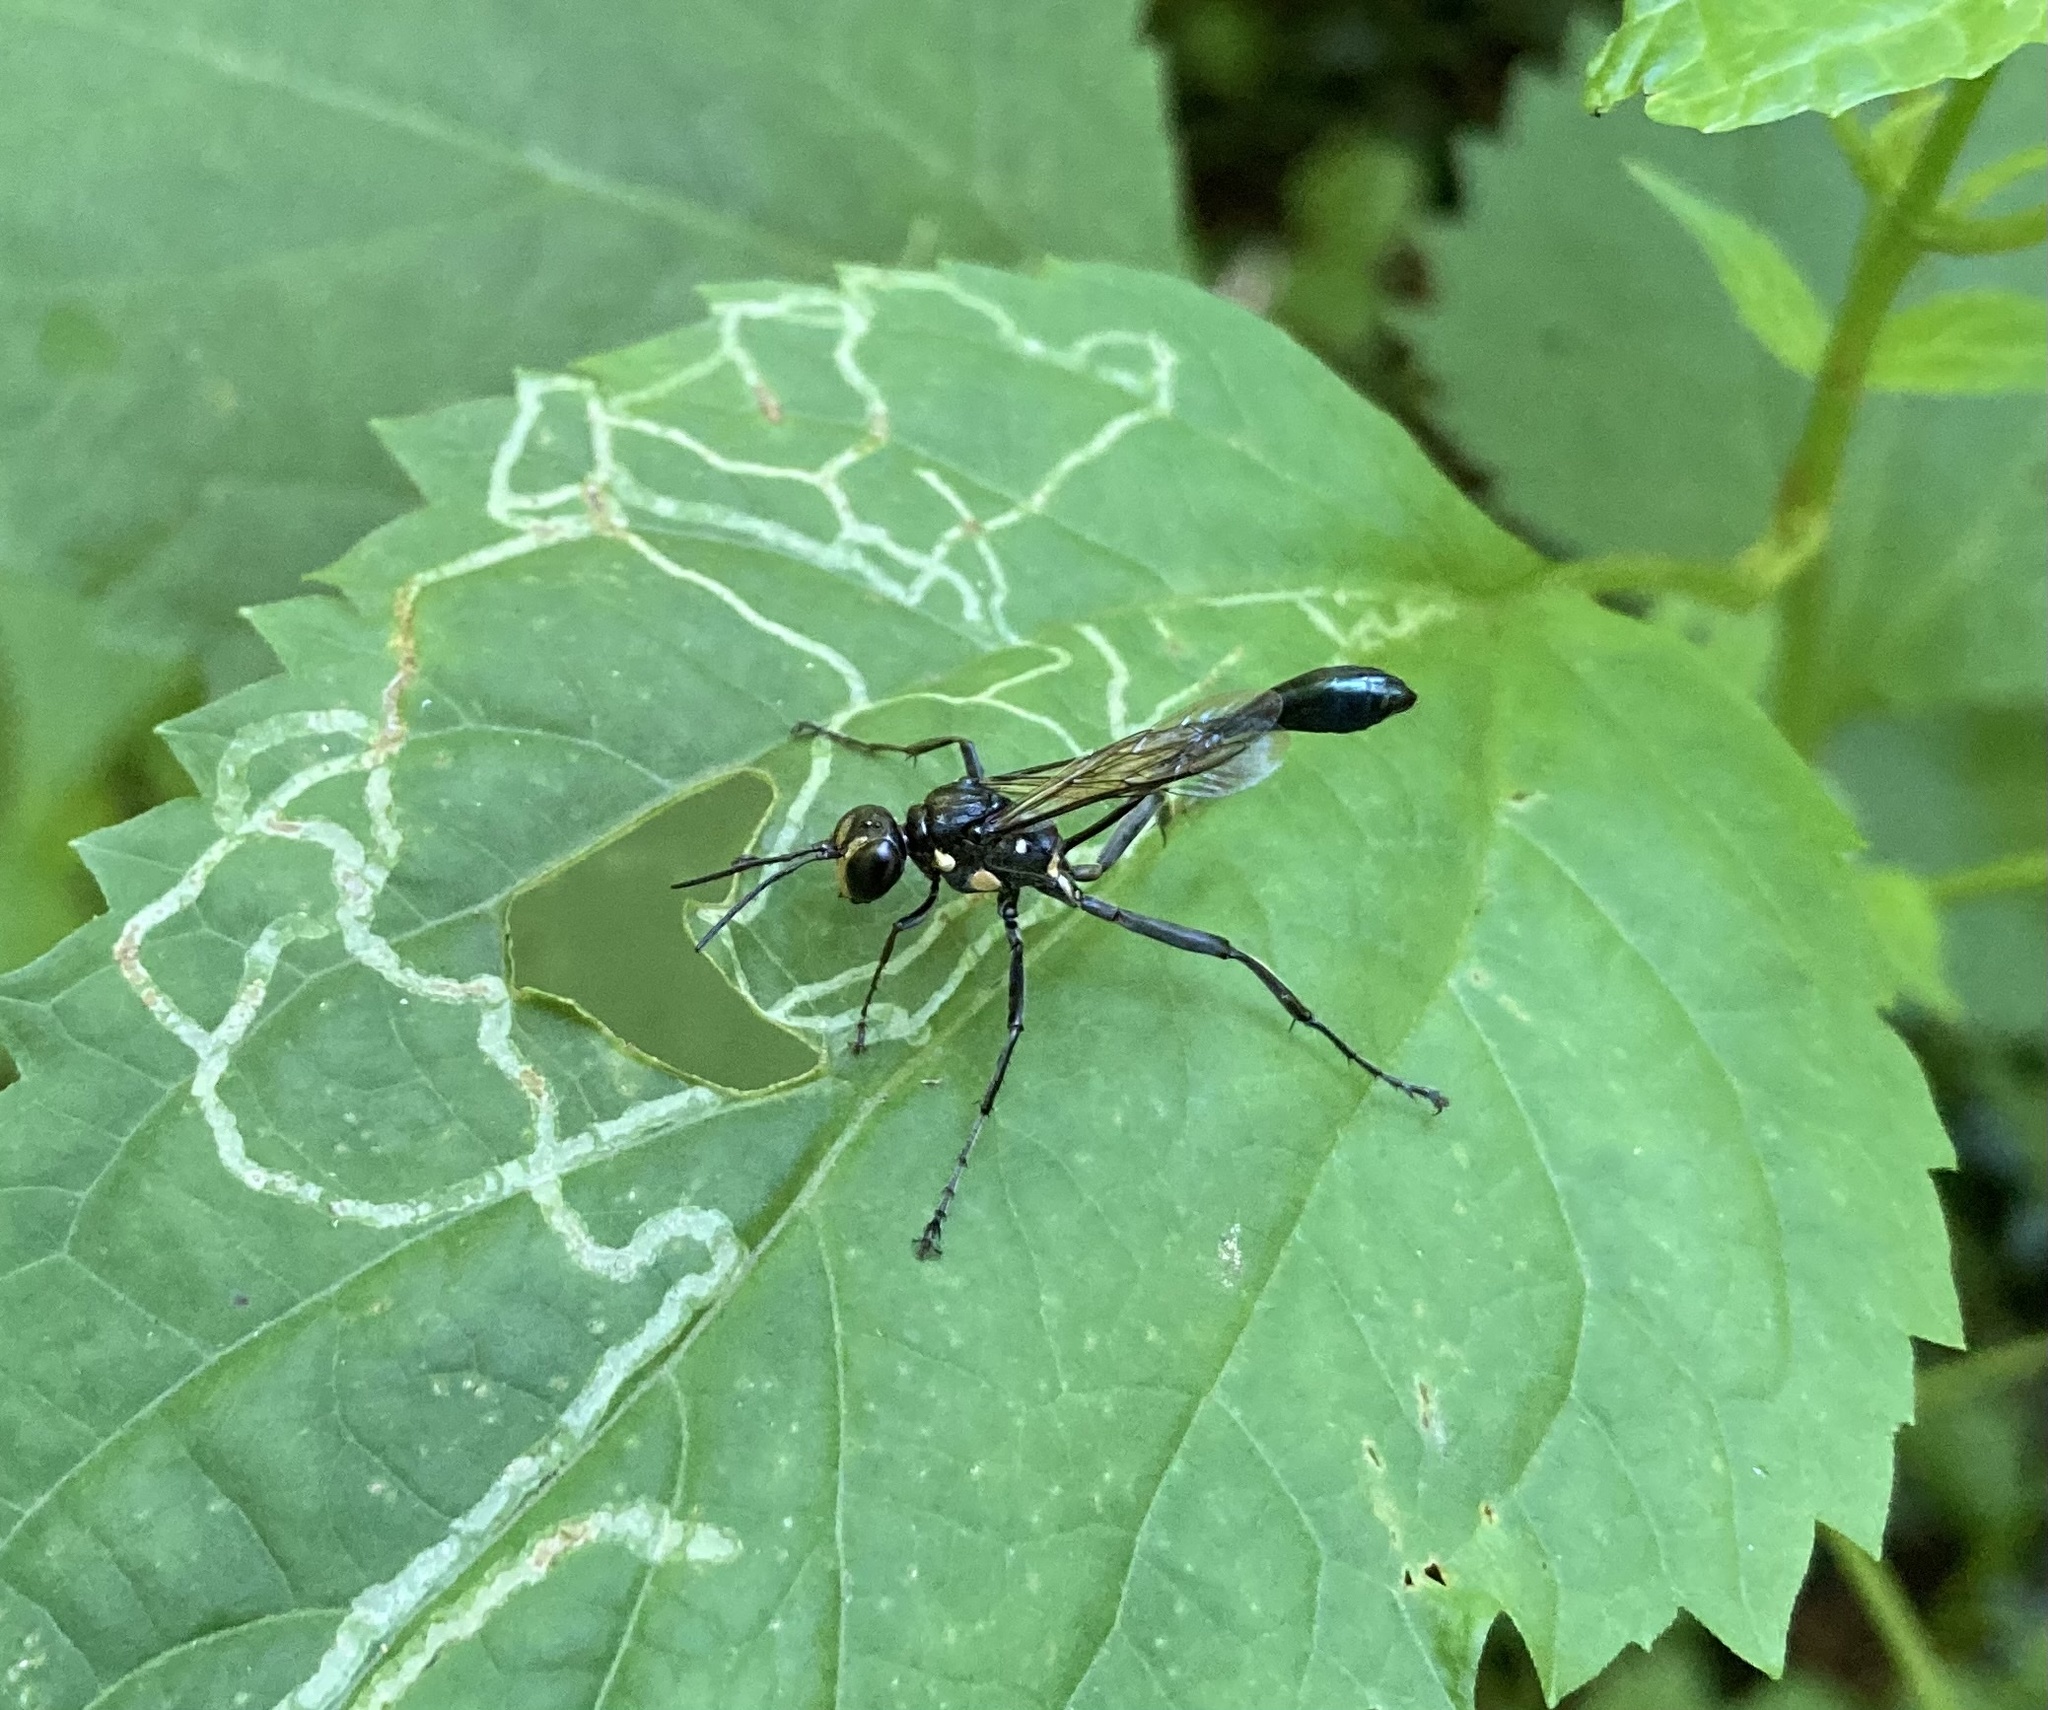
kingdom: Animalia
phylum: Arthropoda
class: Insecta
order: Hymenoptera
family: Sphecidae
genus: Eremnophila
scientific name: Eremnophila aureonotata
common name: Gold-marked thread-waisted wasp
